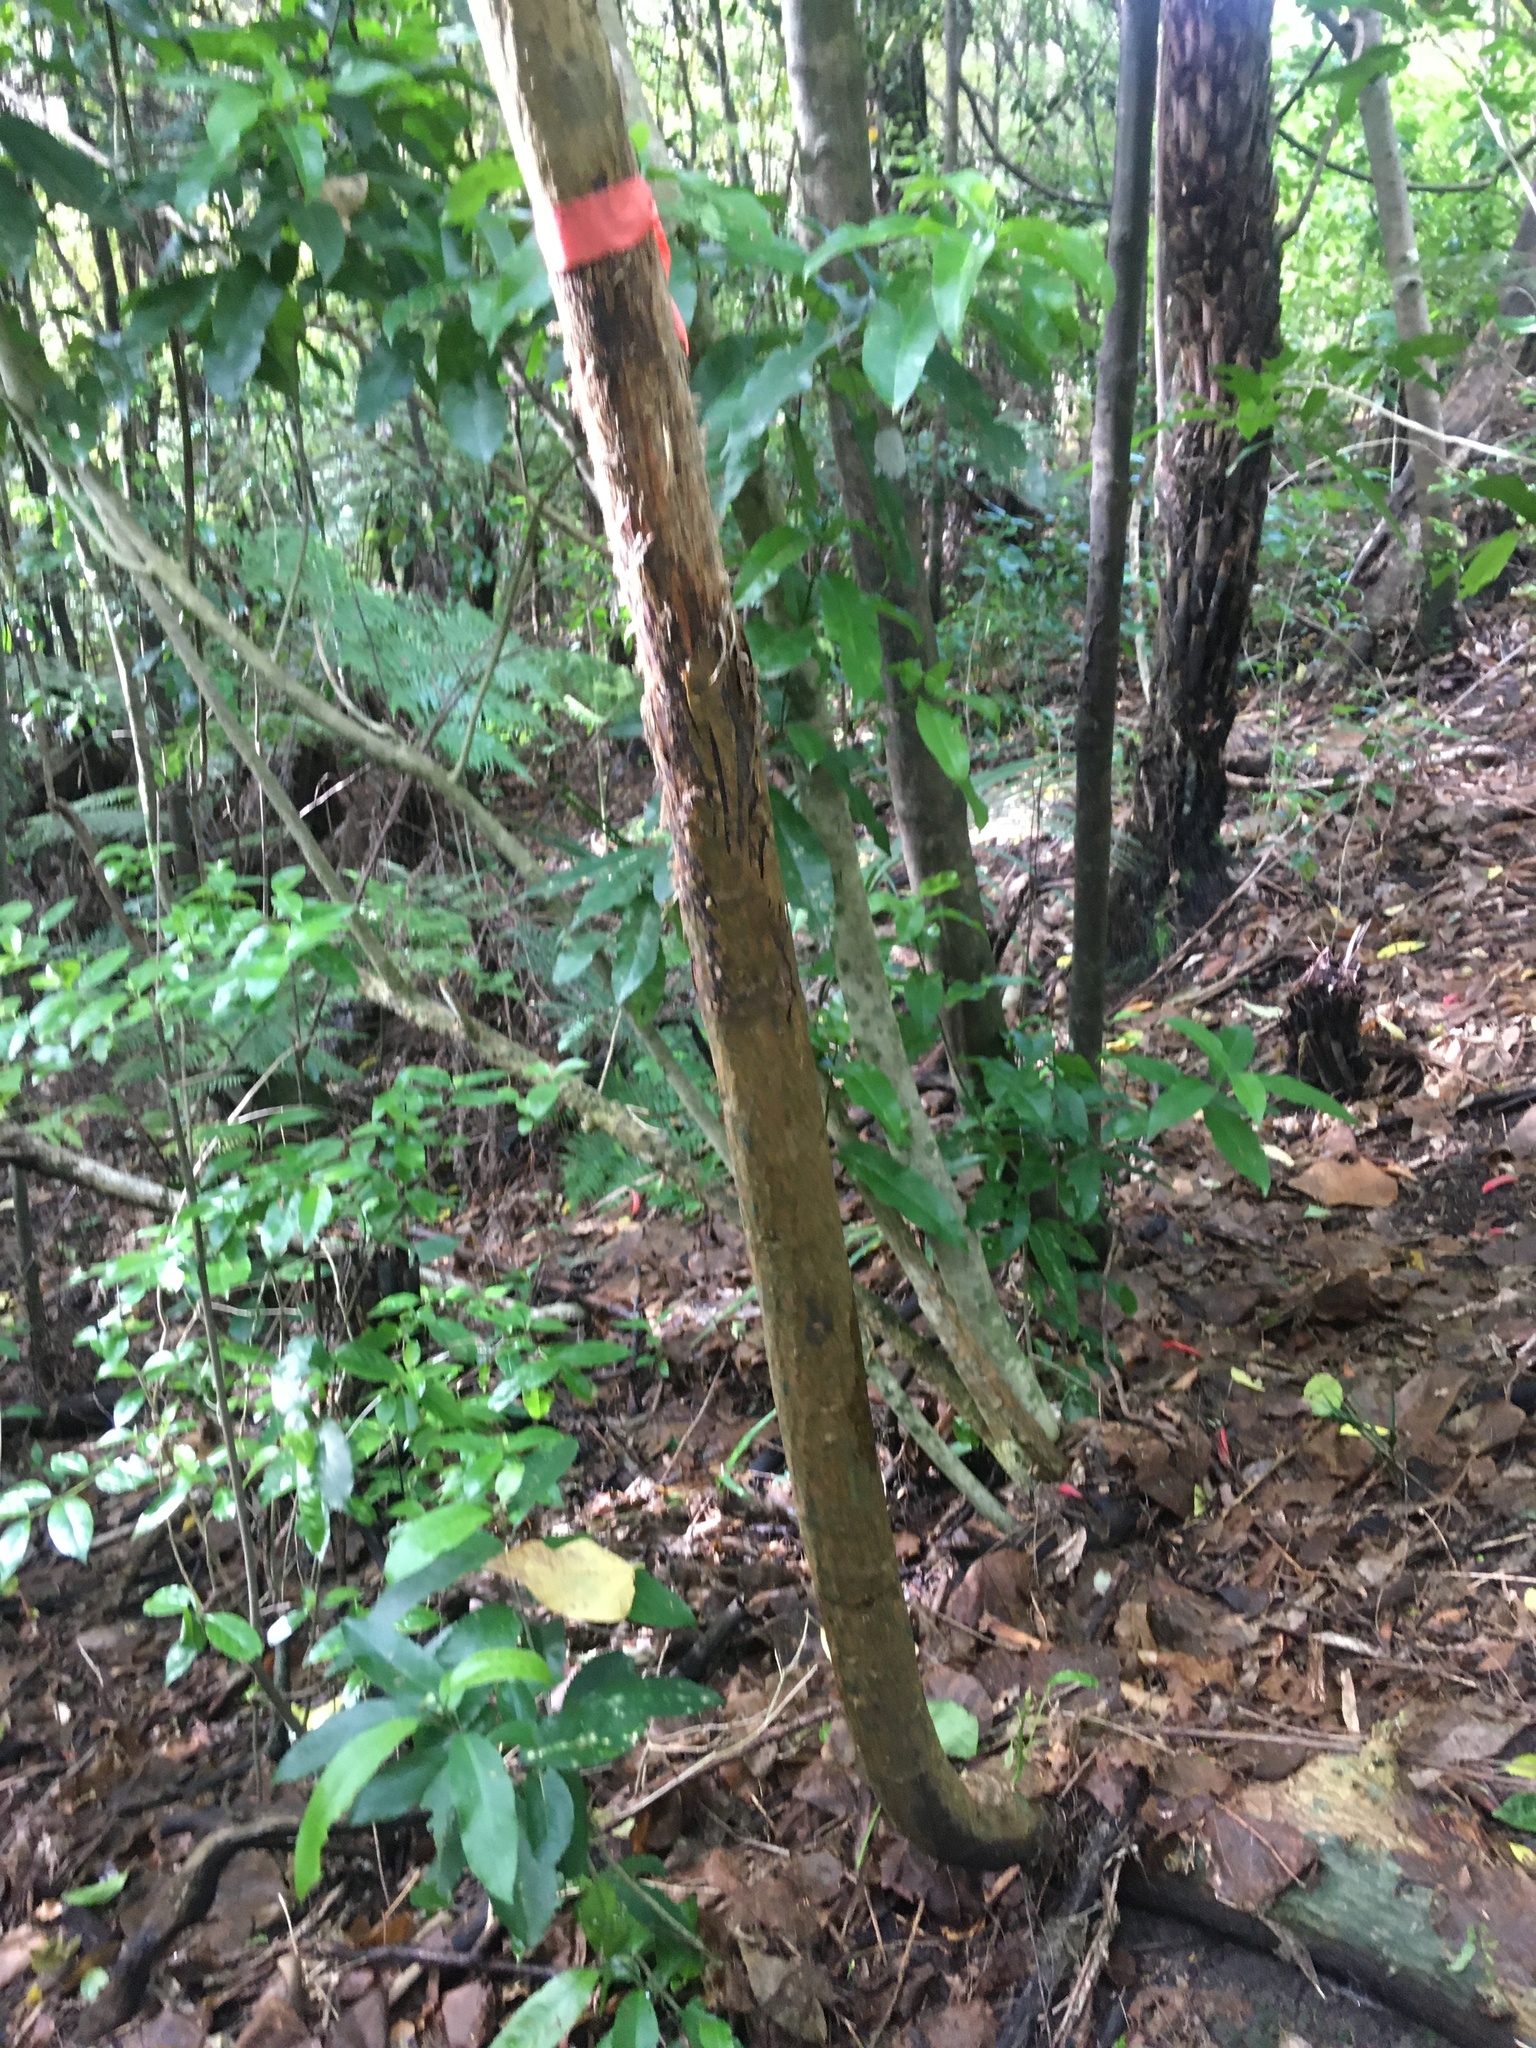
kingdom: Plantae
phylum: Tracheophyta
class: Magnoliopsida
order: Malpighiales
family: Violaceae
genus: Melicytus
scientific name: Melicytus ramiflorus
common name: Mahoe
